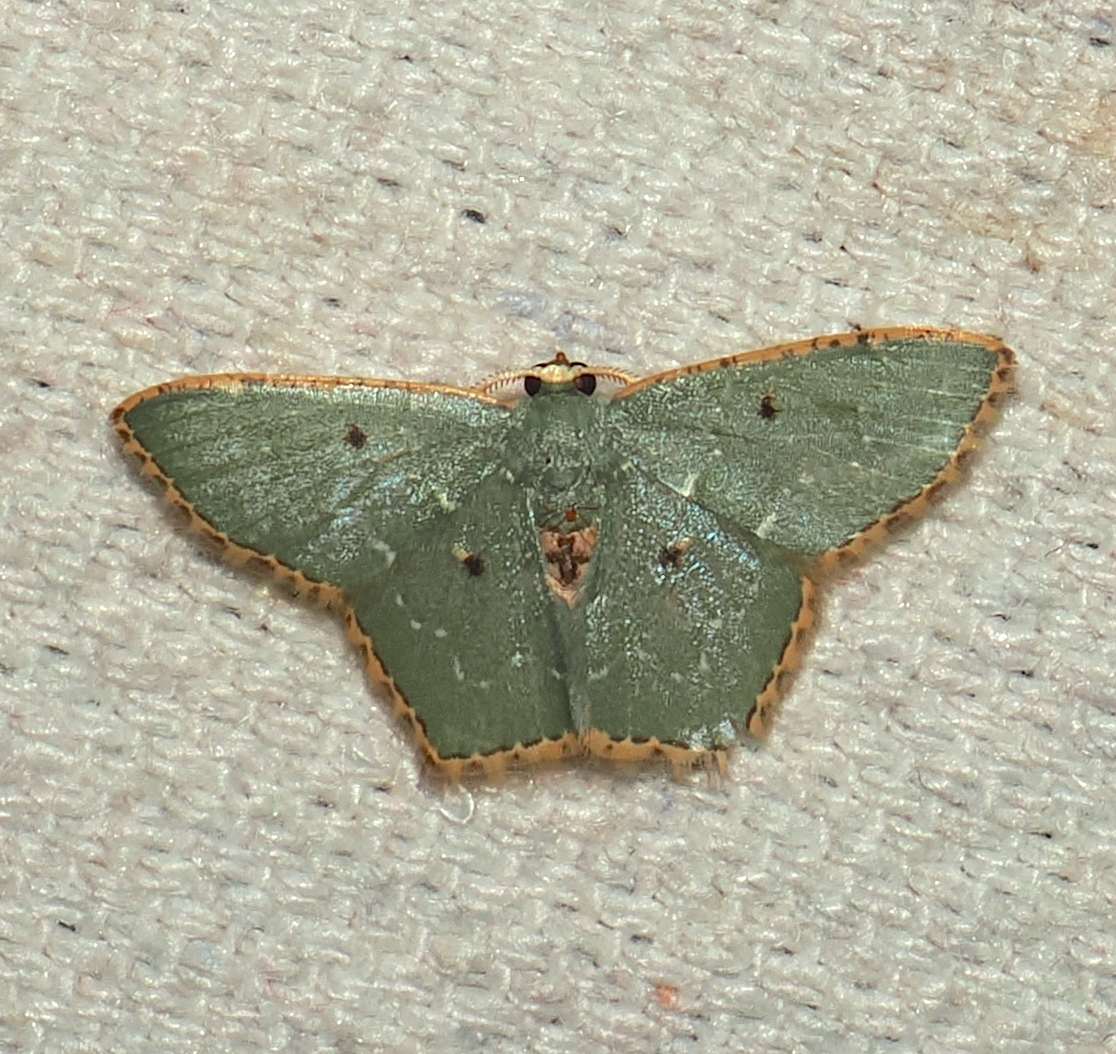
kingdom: Animalia
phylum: Arthropoda
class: Insecta
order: Lepidoptera
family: Geometridae
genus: Chloropteryx
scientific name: Chloropteryx stigmatica
